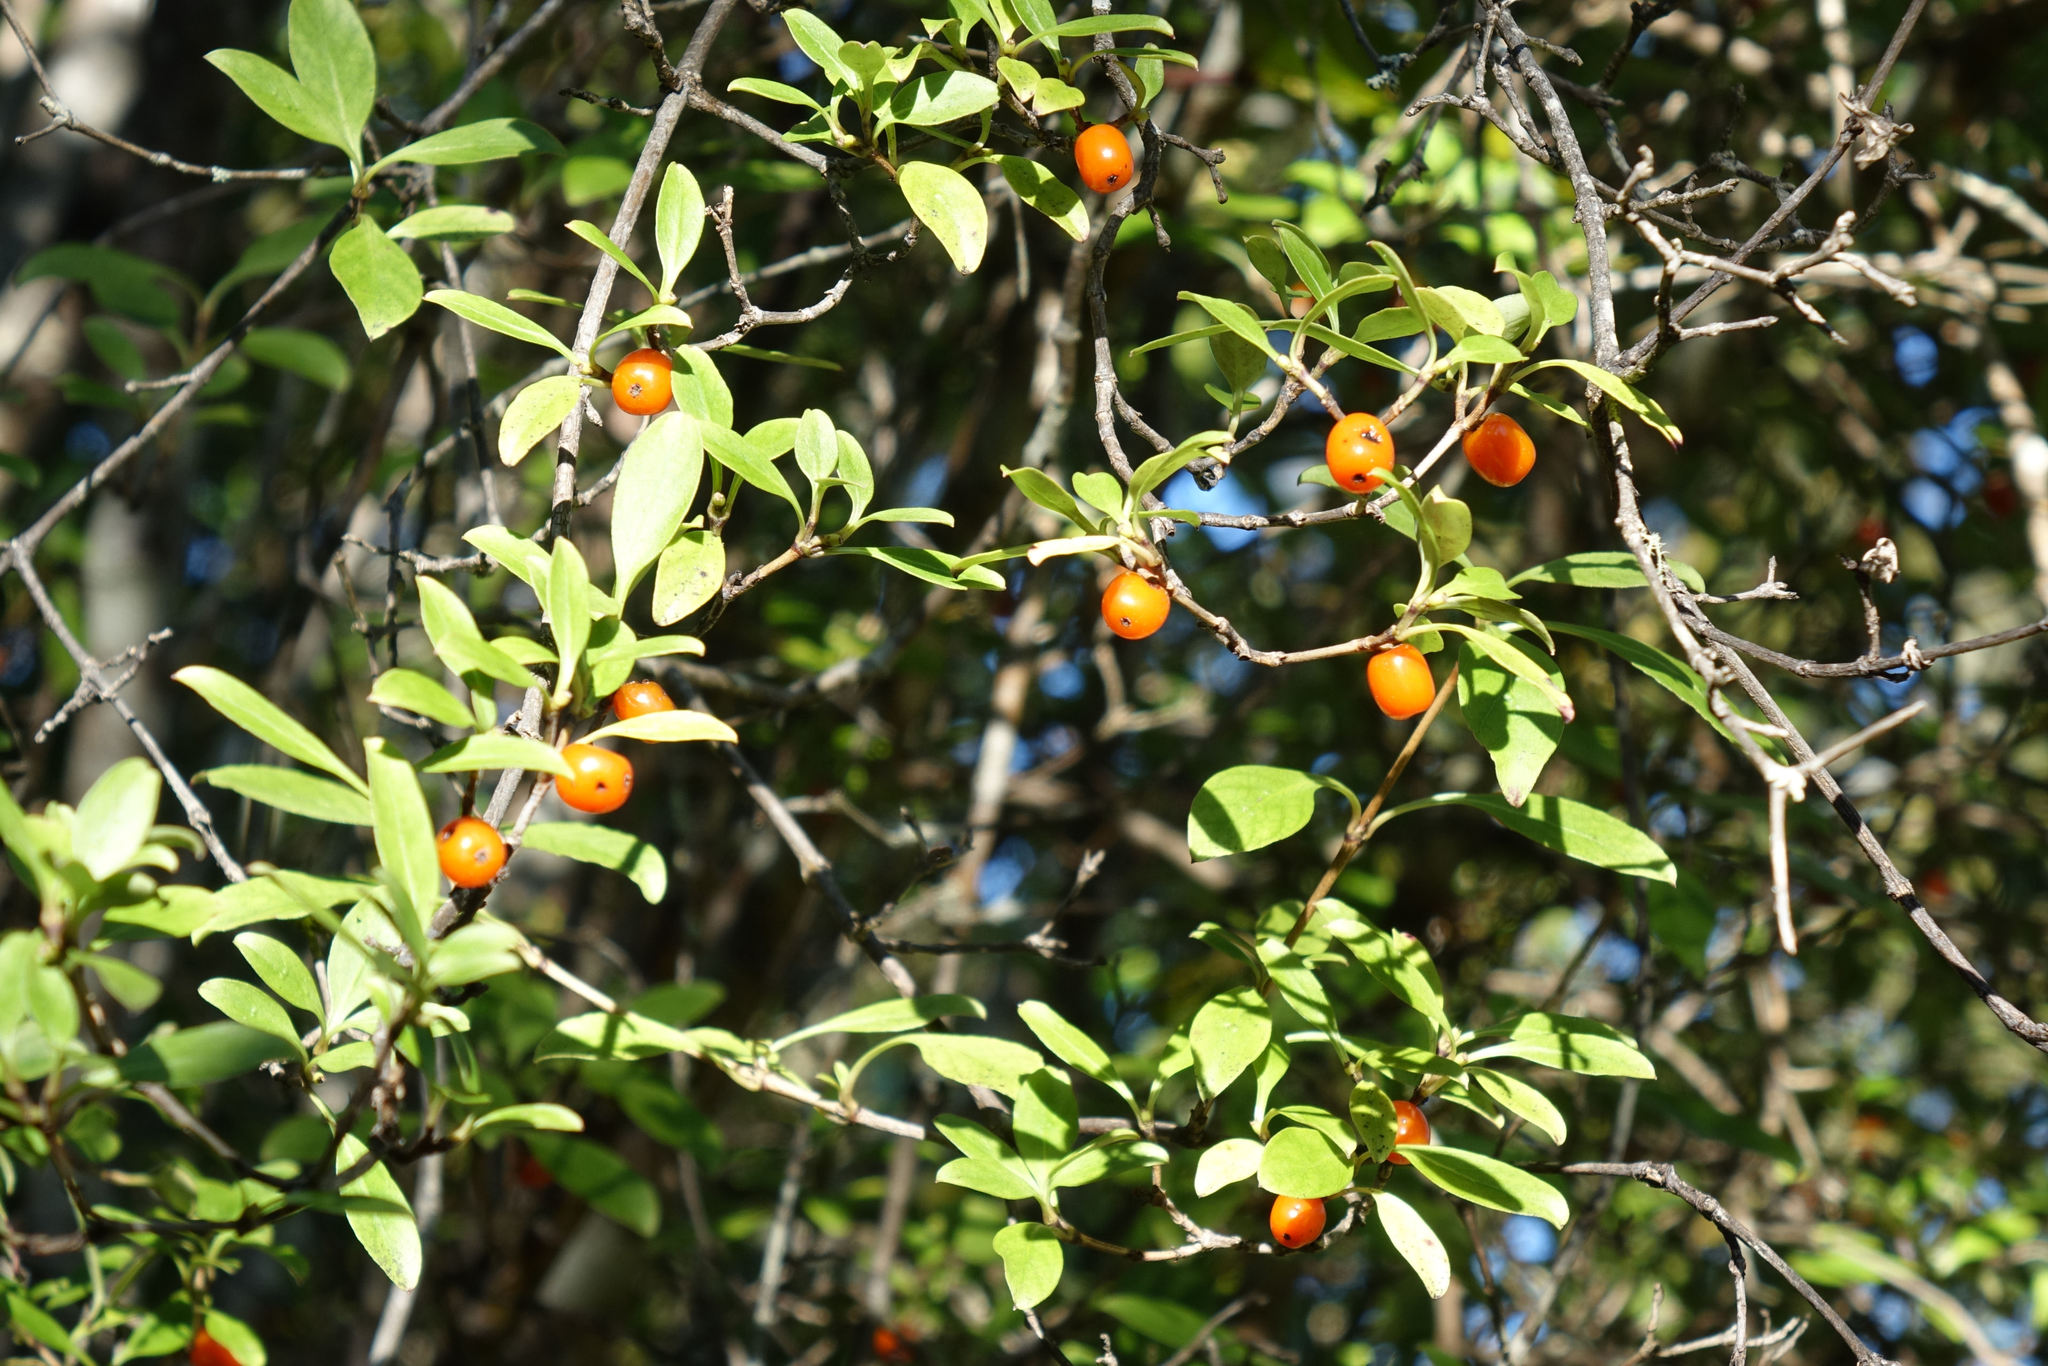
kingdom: Plantae
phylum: Tracheophyta
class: Magnoliopsida
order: Gentianales
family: Rubiaceae
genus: Coprosma
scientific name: Coprosma foetidissima
